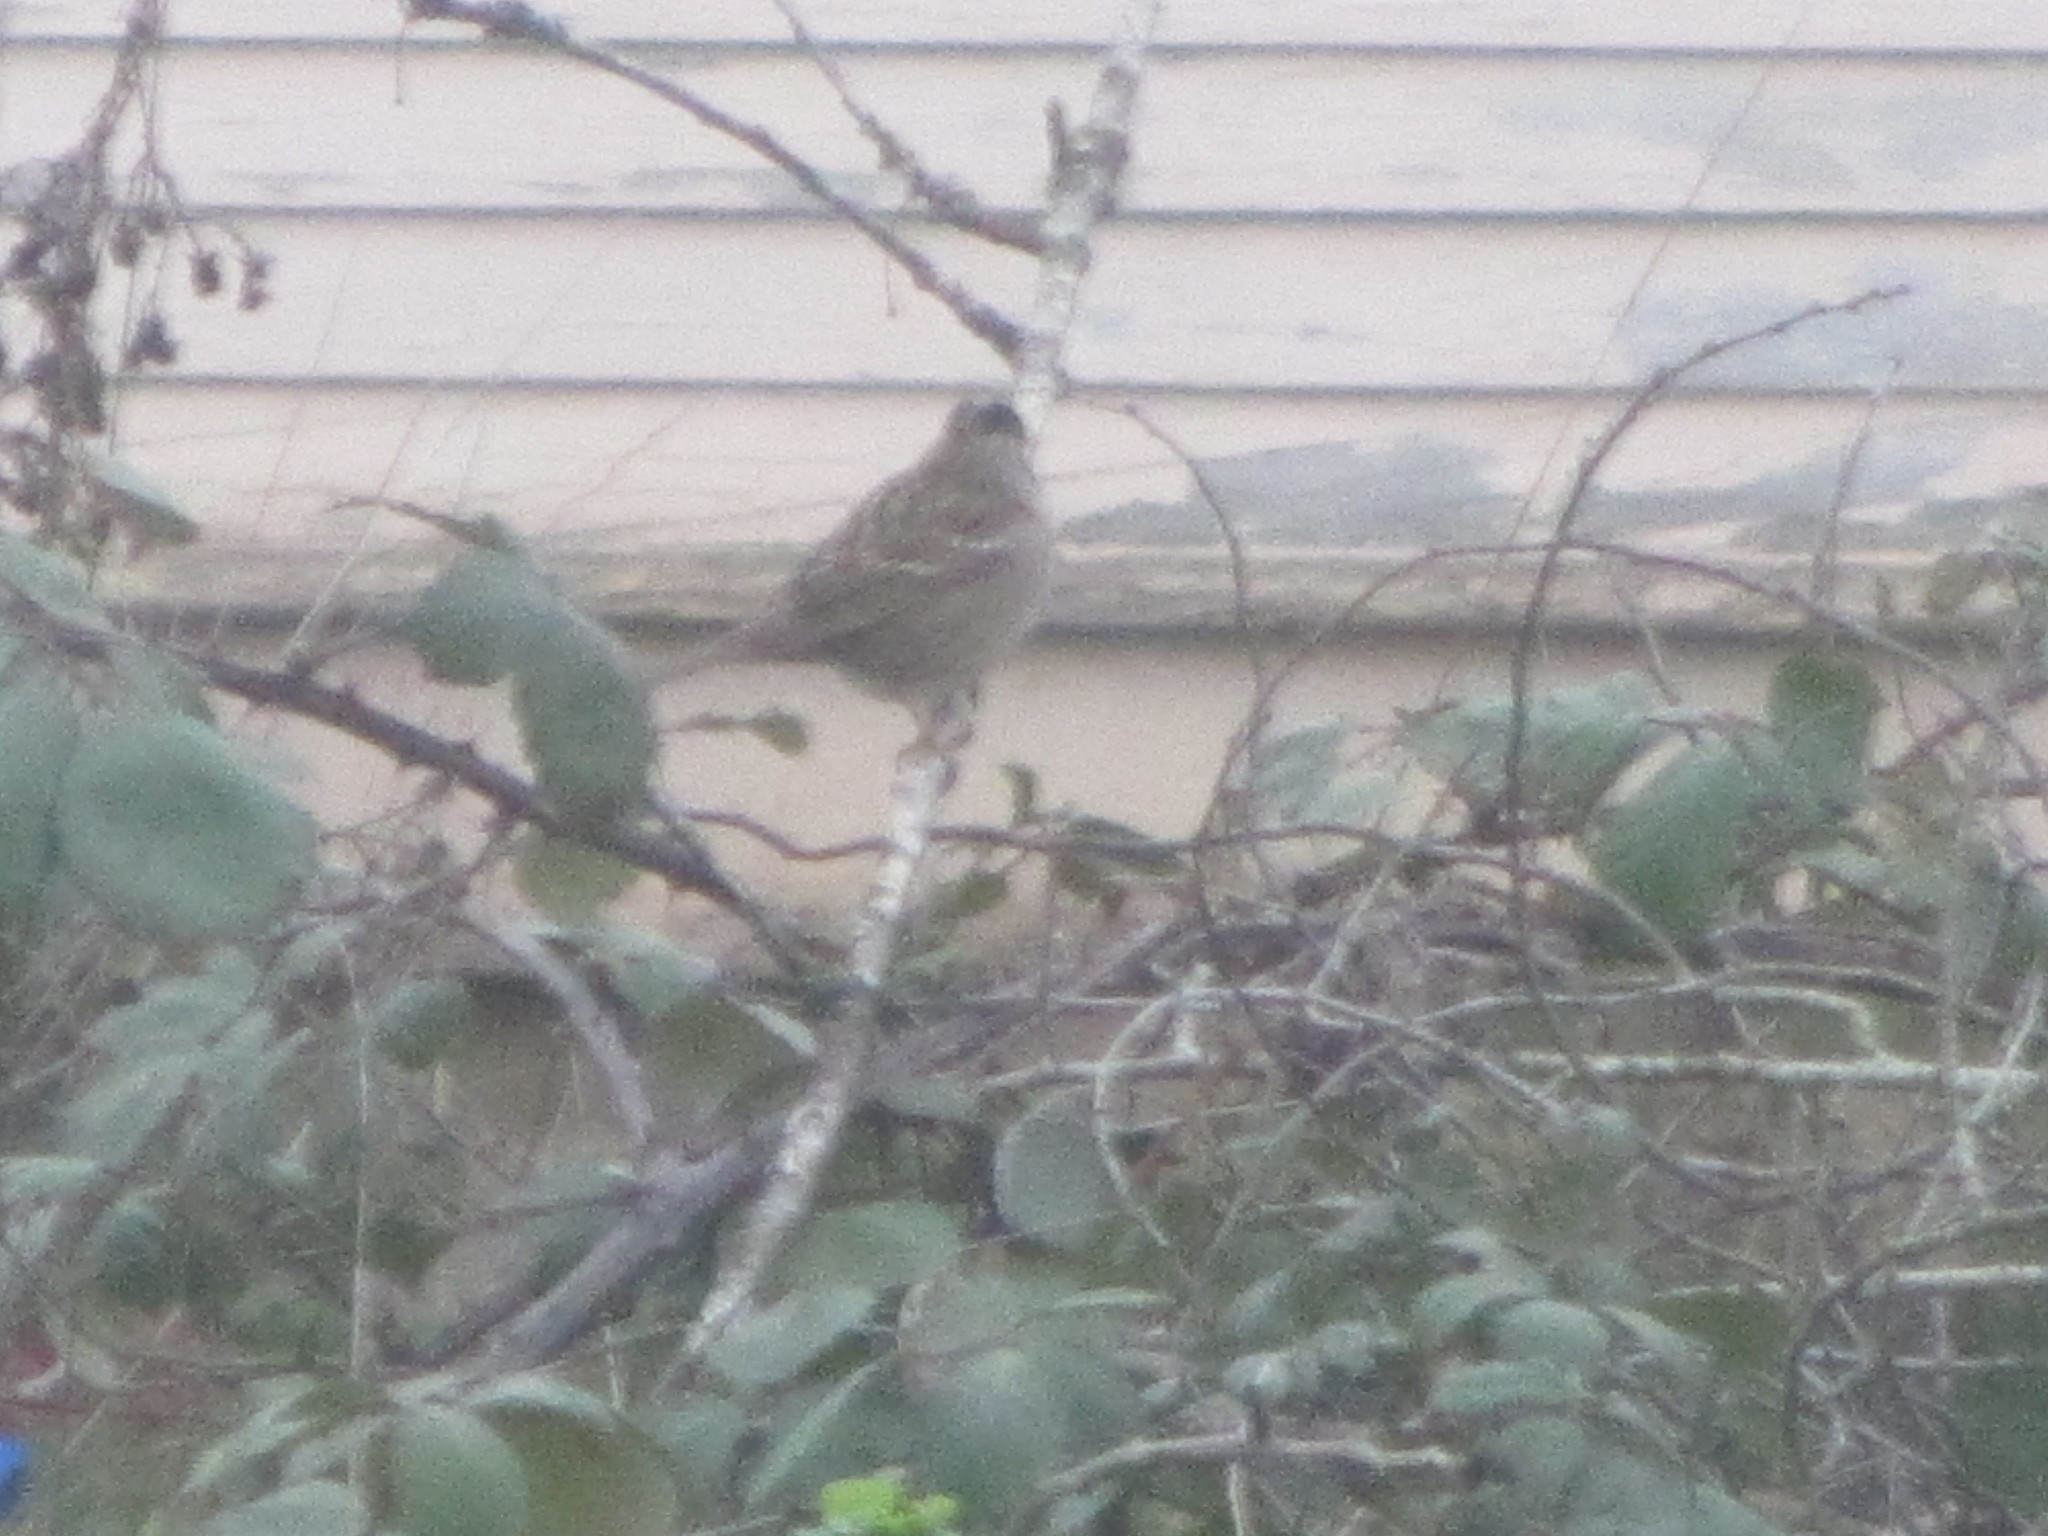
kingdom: Animalia
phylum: Chordata
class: Aves
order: Passeriformes
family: Passerellidae
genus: Zonotrichia
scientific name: Zonotrichia atricapilla
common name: Golden-crowned sparrow
